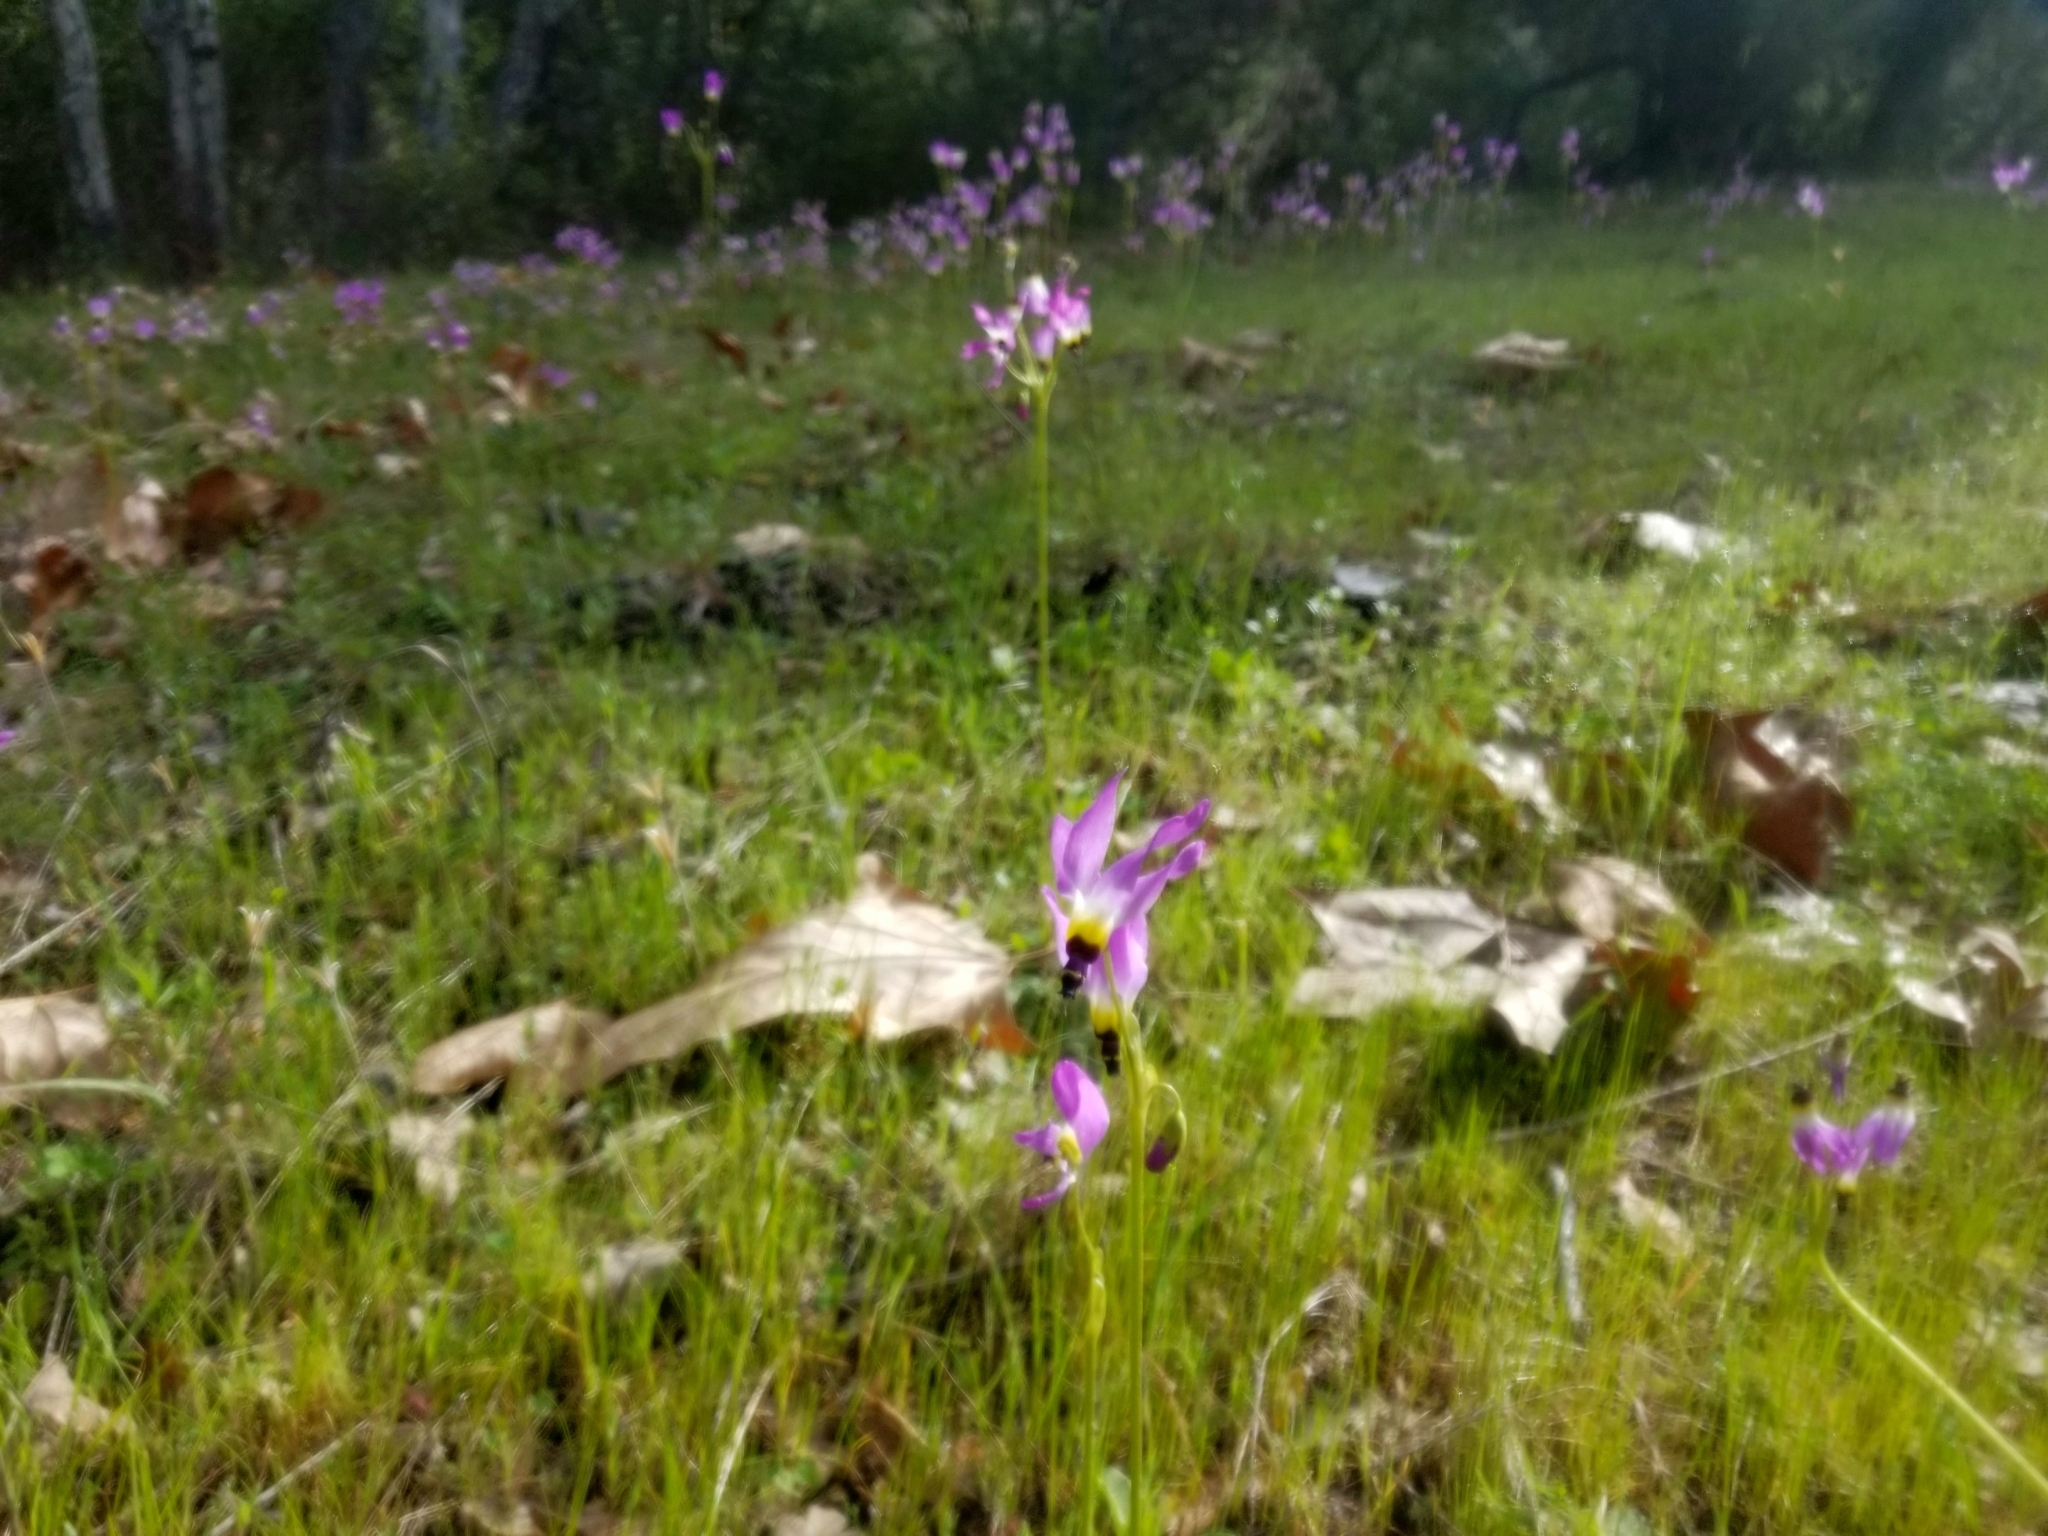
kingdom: Plantae
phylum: Tracheophyta
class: Magnoliopsida
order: Ericales
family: Primulaceae
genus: Dodecatheon
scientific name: Dodecatheon clevelandii
